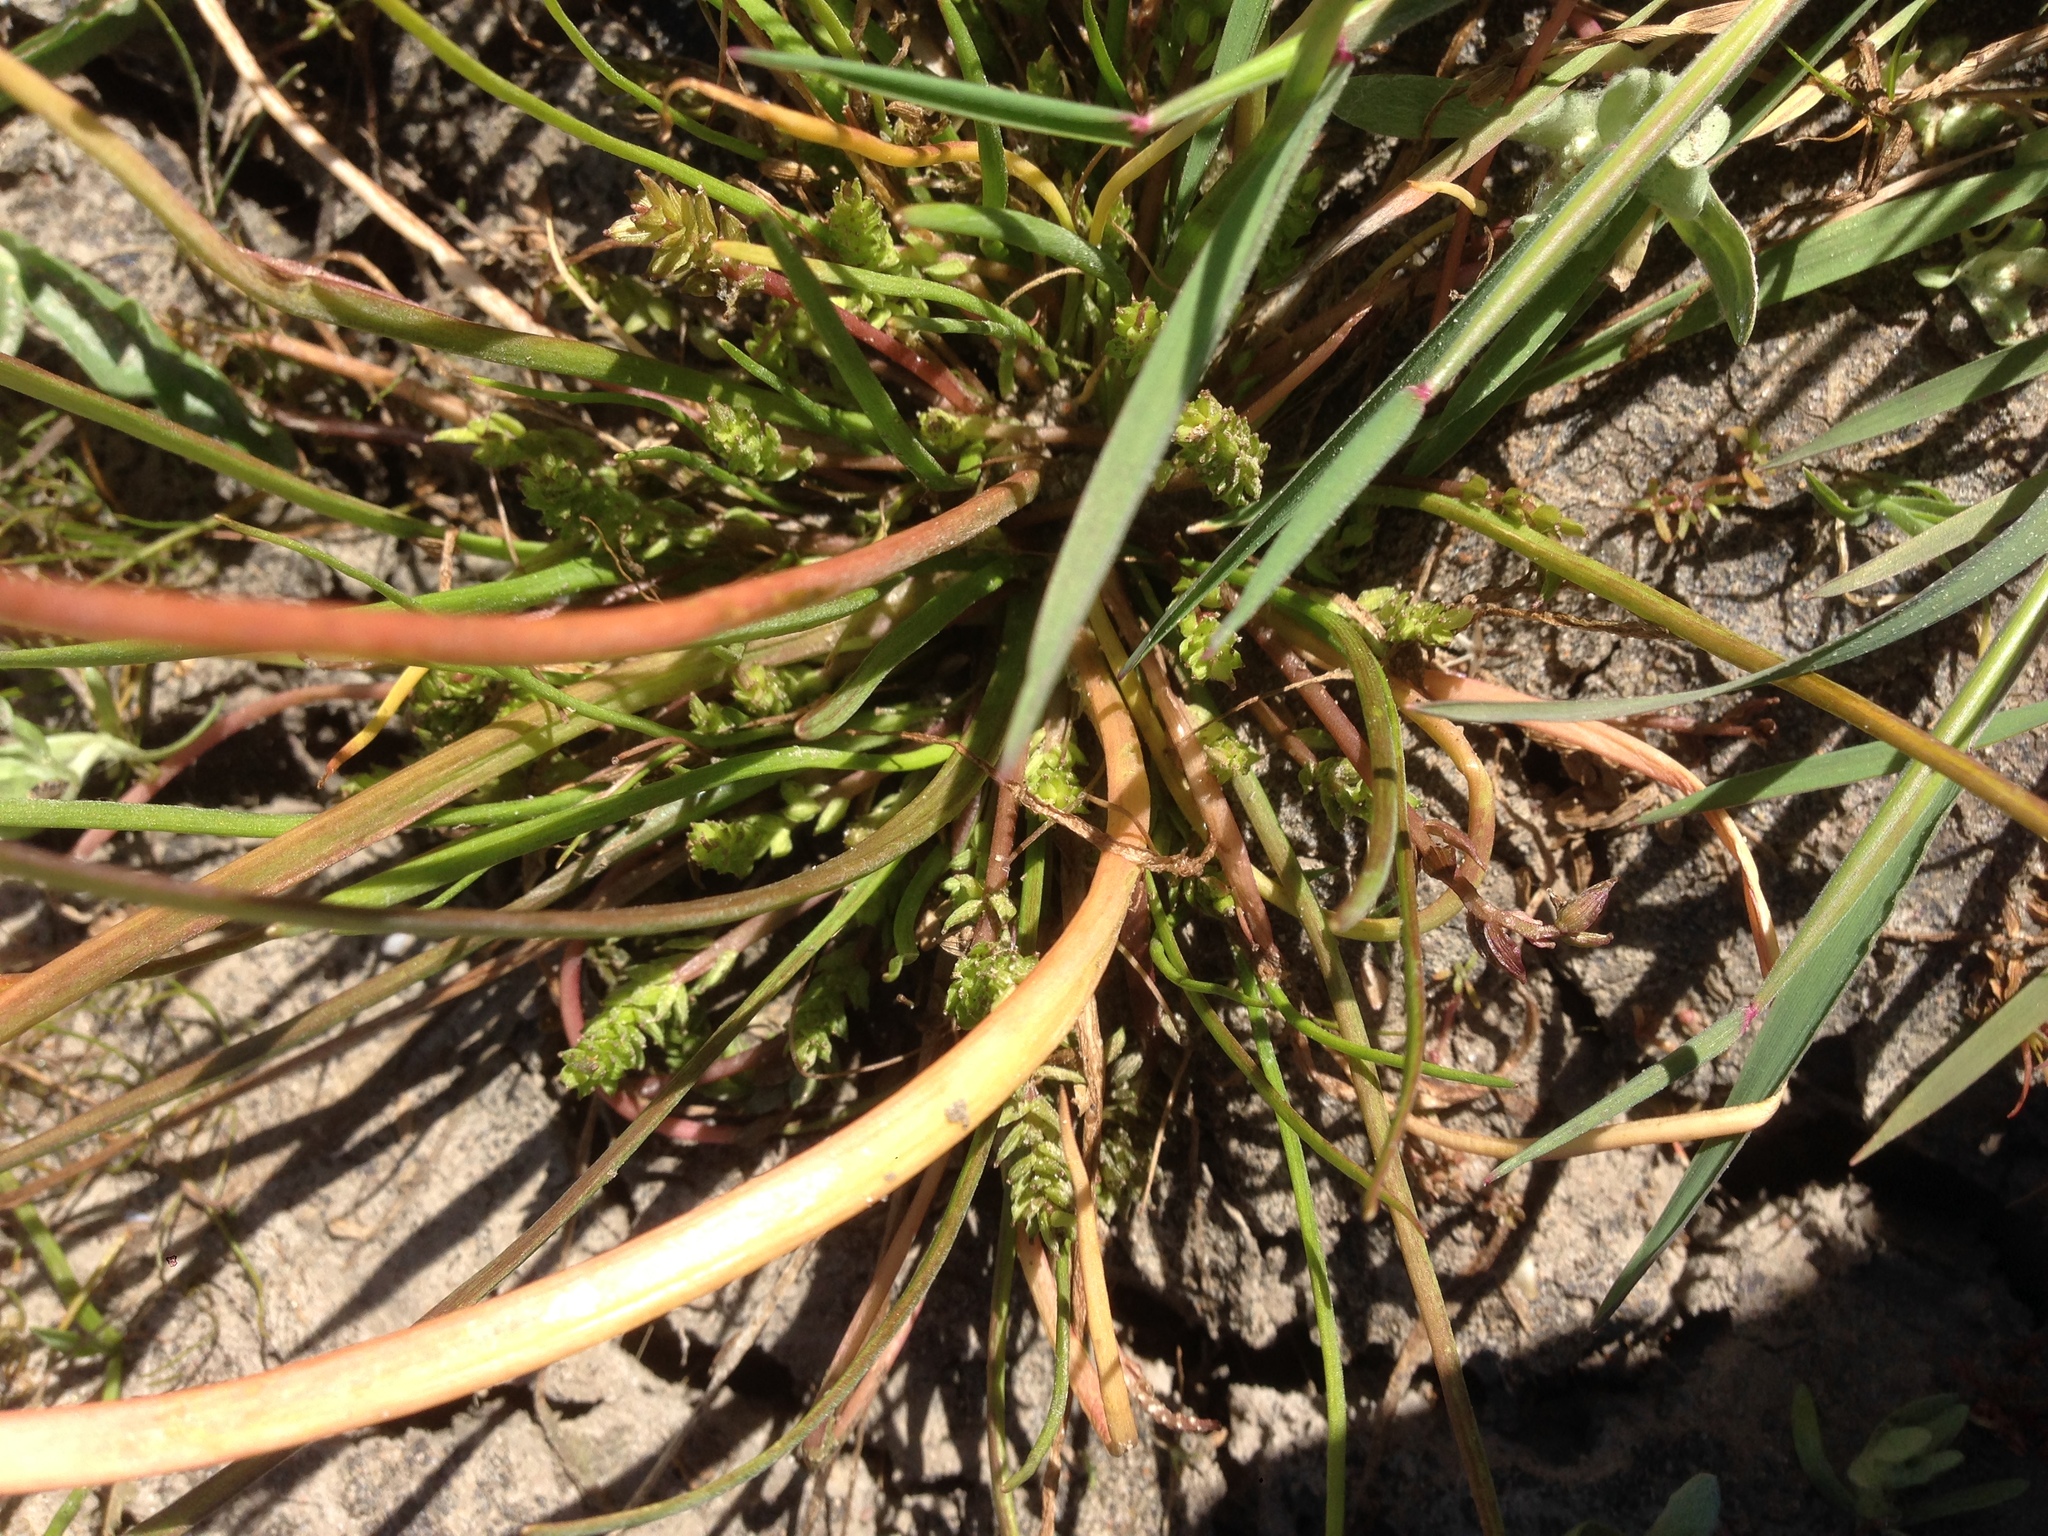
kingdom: Plantae
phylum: Tracheophyta
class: Liliopsida
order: Alismatales
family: Juncaginaceae
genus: Triglochin
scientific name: Triglochin scilloides
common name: Awl-leaved lilaea
